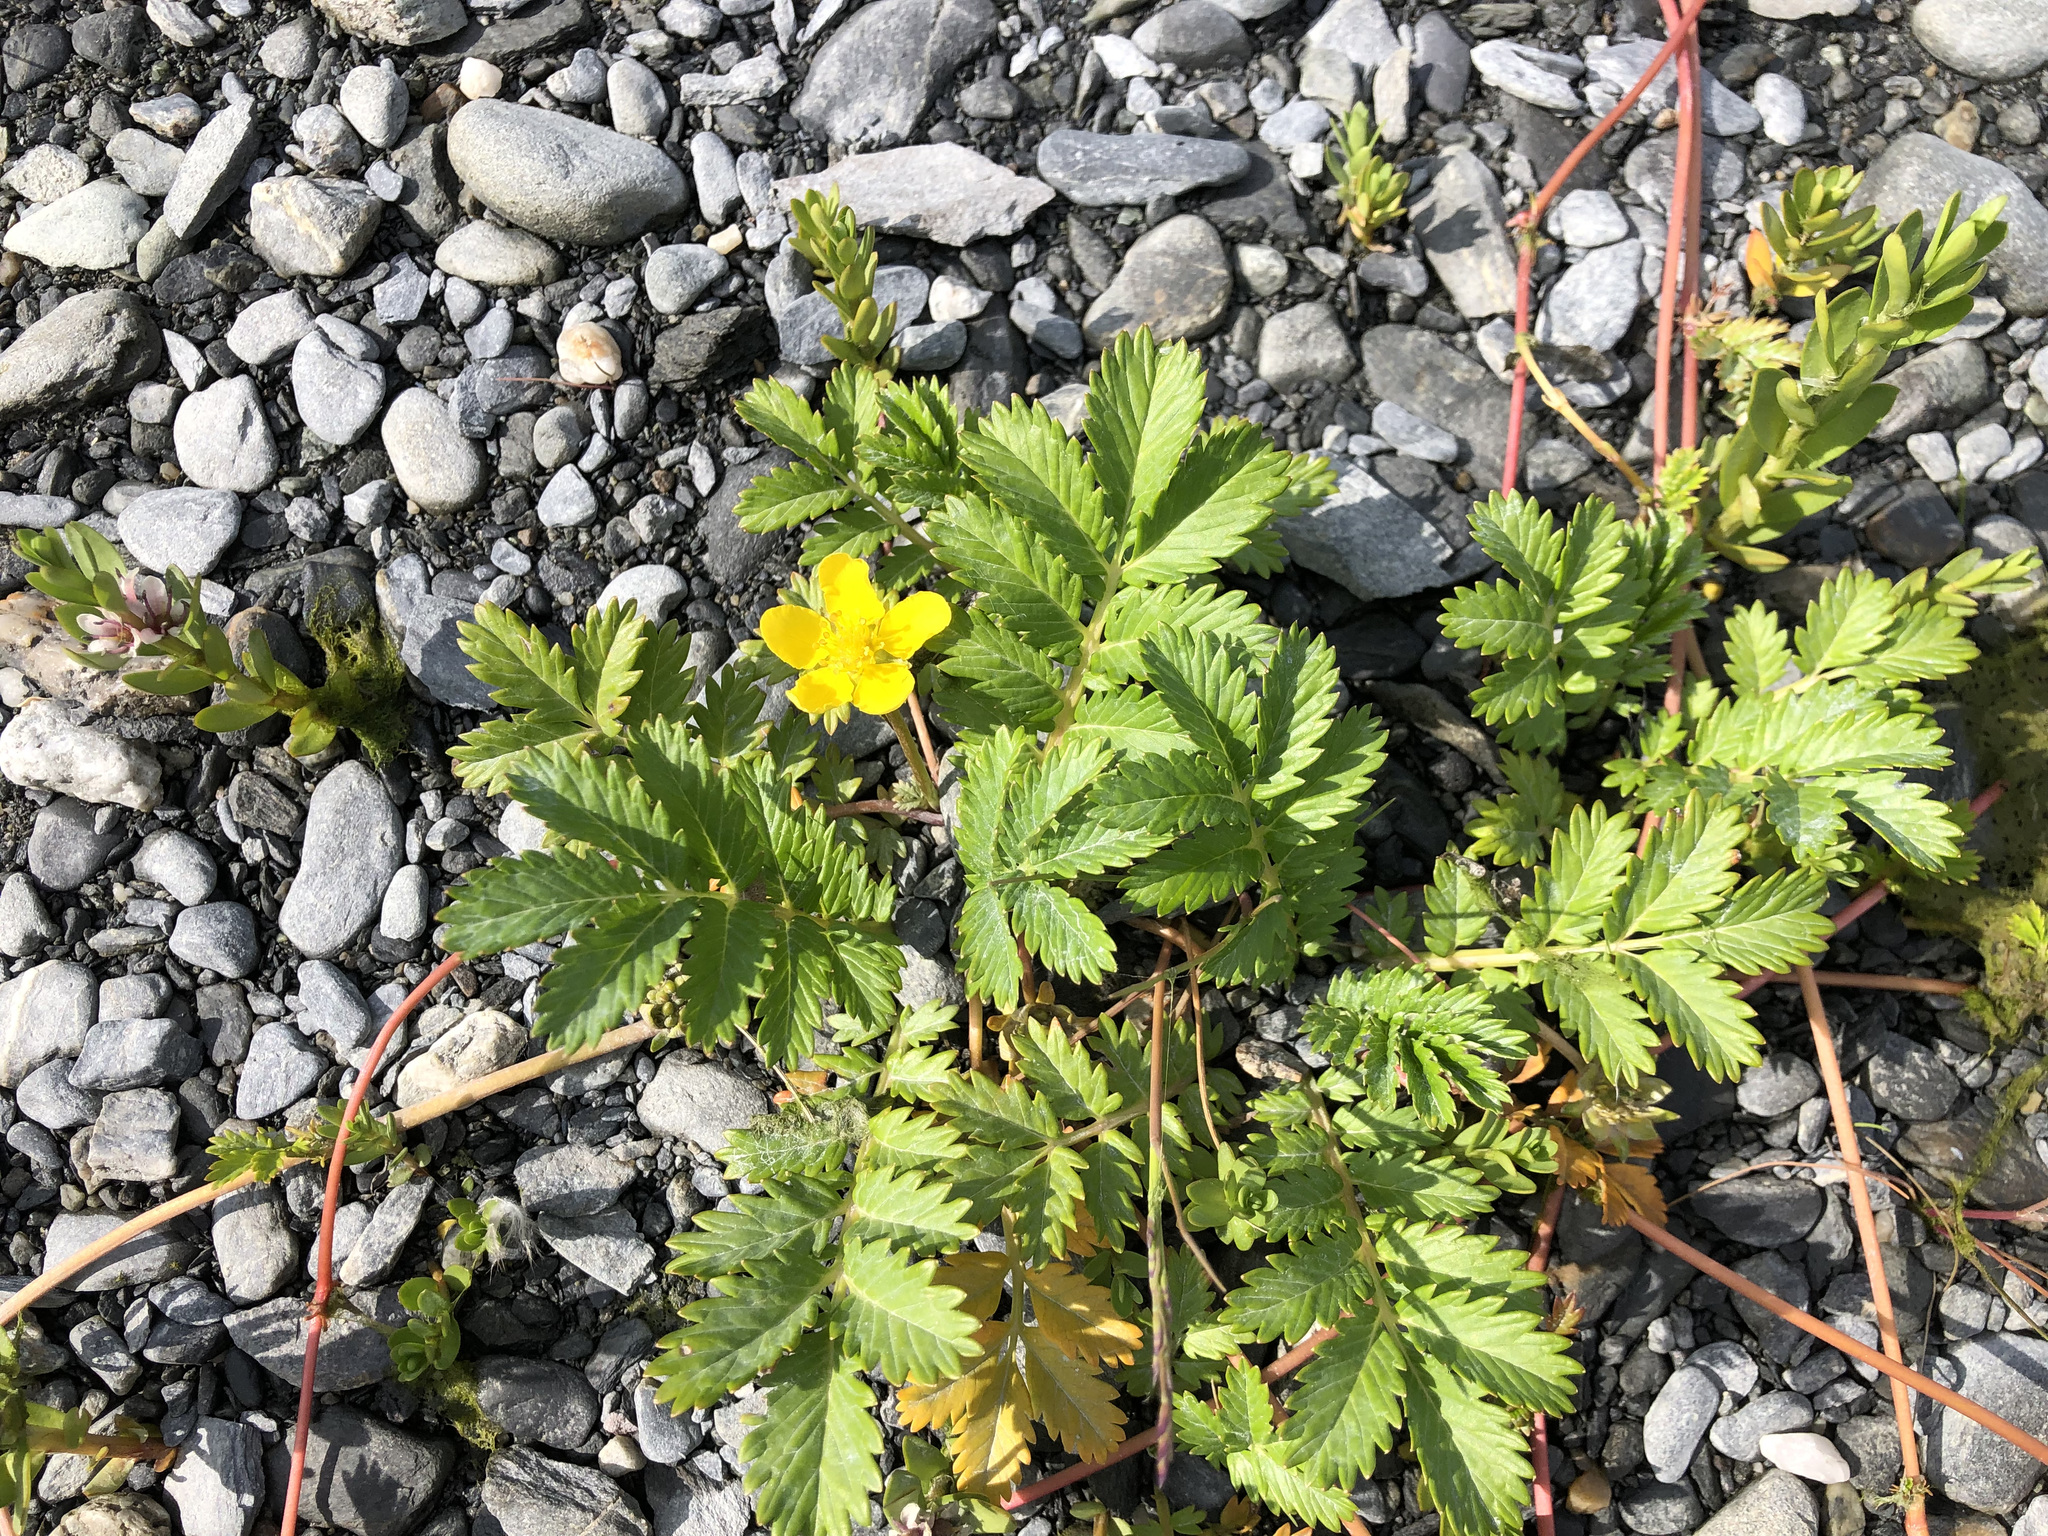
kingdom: Plantae
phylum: Tracheophyta
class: Magnoliopsida
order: Rosales
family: Rosaceae
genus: Argentina
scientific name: Argentina anserina
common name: Common silverweed
